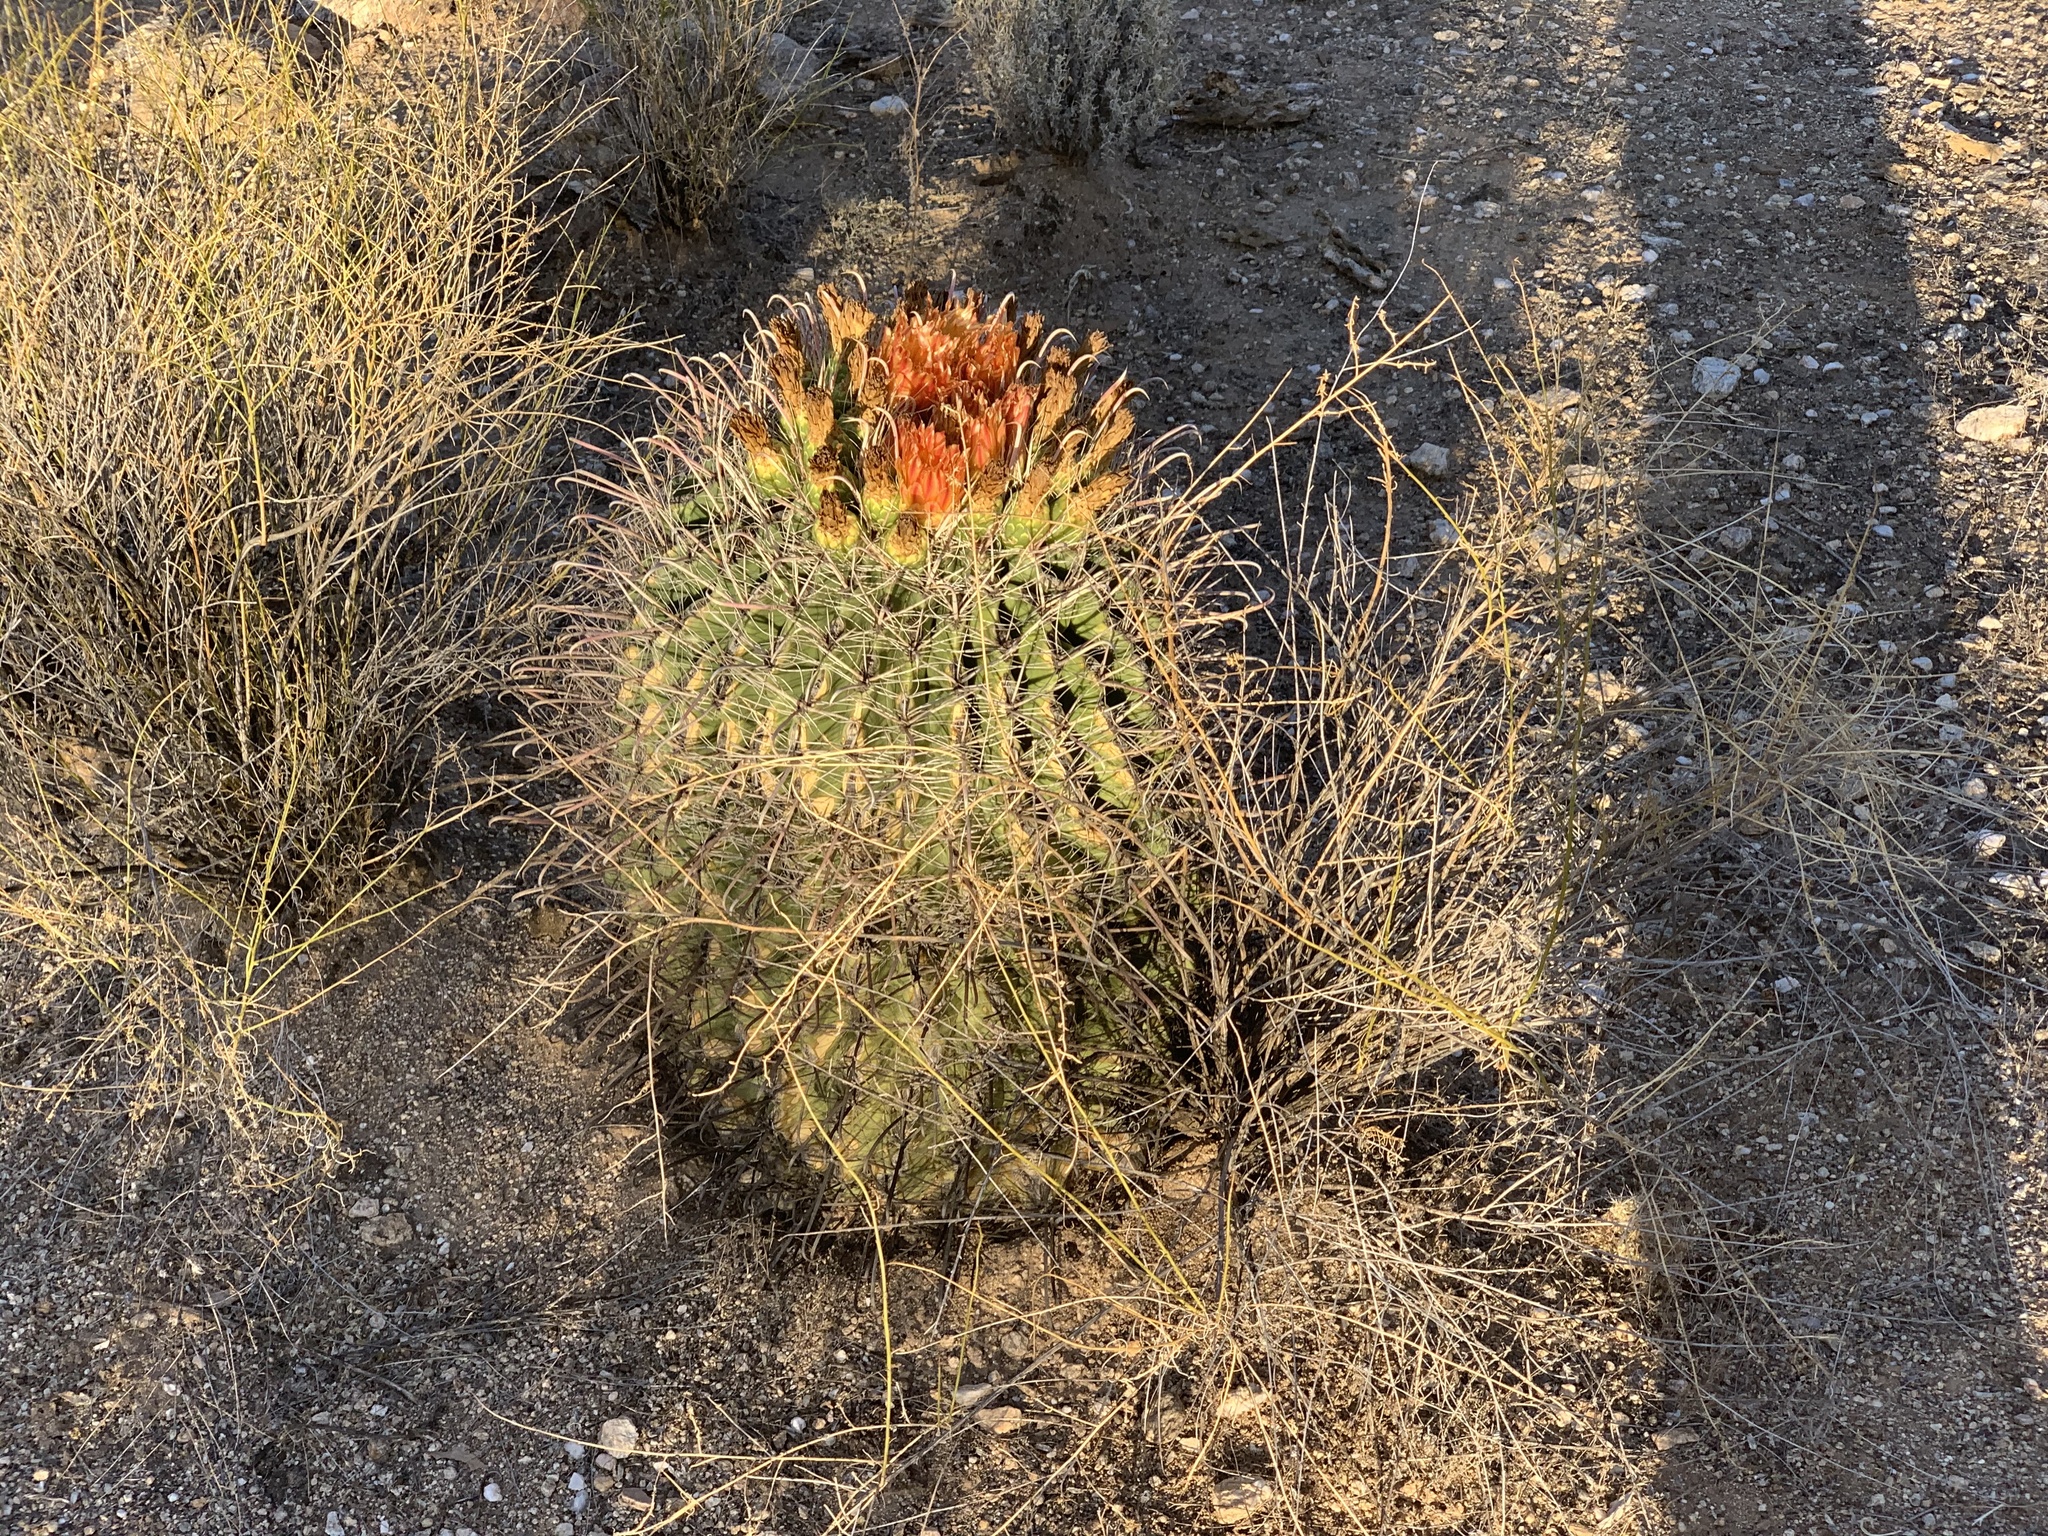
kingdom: Plantae
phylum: Tracheophyta
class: Magnoliopsida
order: Caryophyllales
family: Cactaceae
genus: Ferocactus
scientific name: Ferocactus wislizeni
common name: Candy barrel cactus
